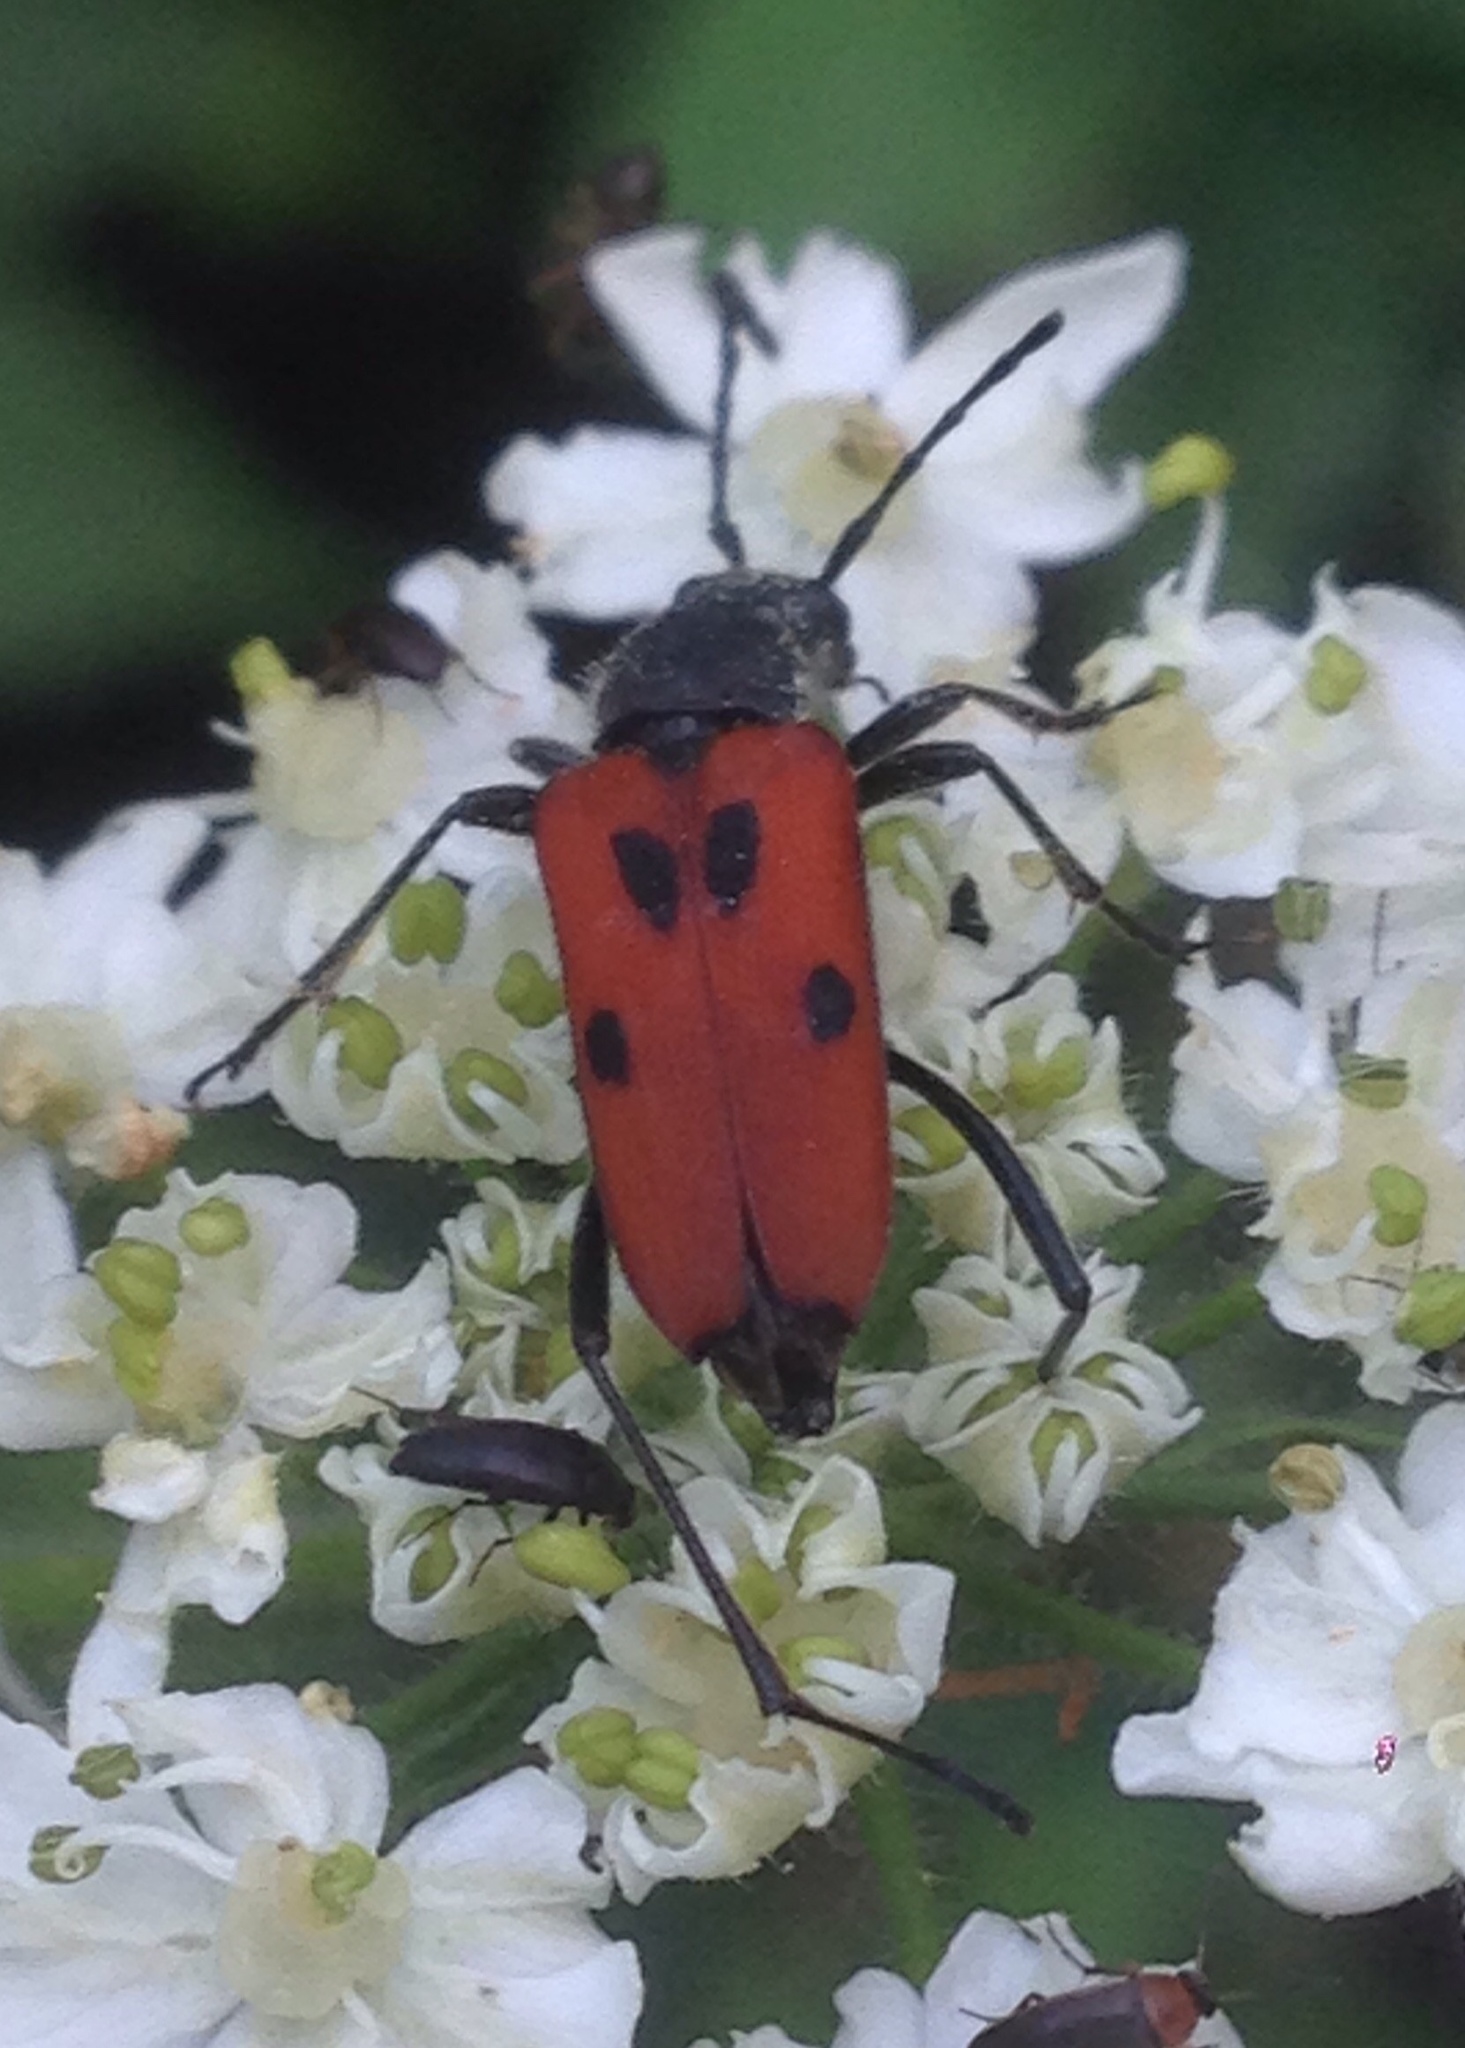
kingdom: Animalia
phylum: Arthropoda
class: Insecta
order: Coleoptera
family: Cerambycidae
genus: Anastrangalia
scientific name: Anastrangalia laetifica
